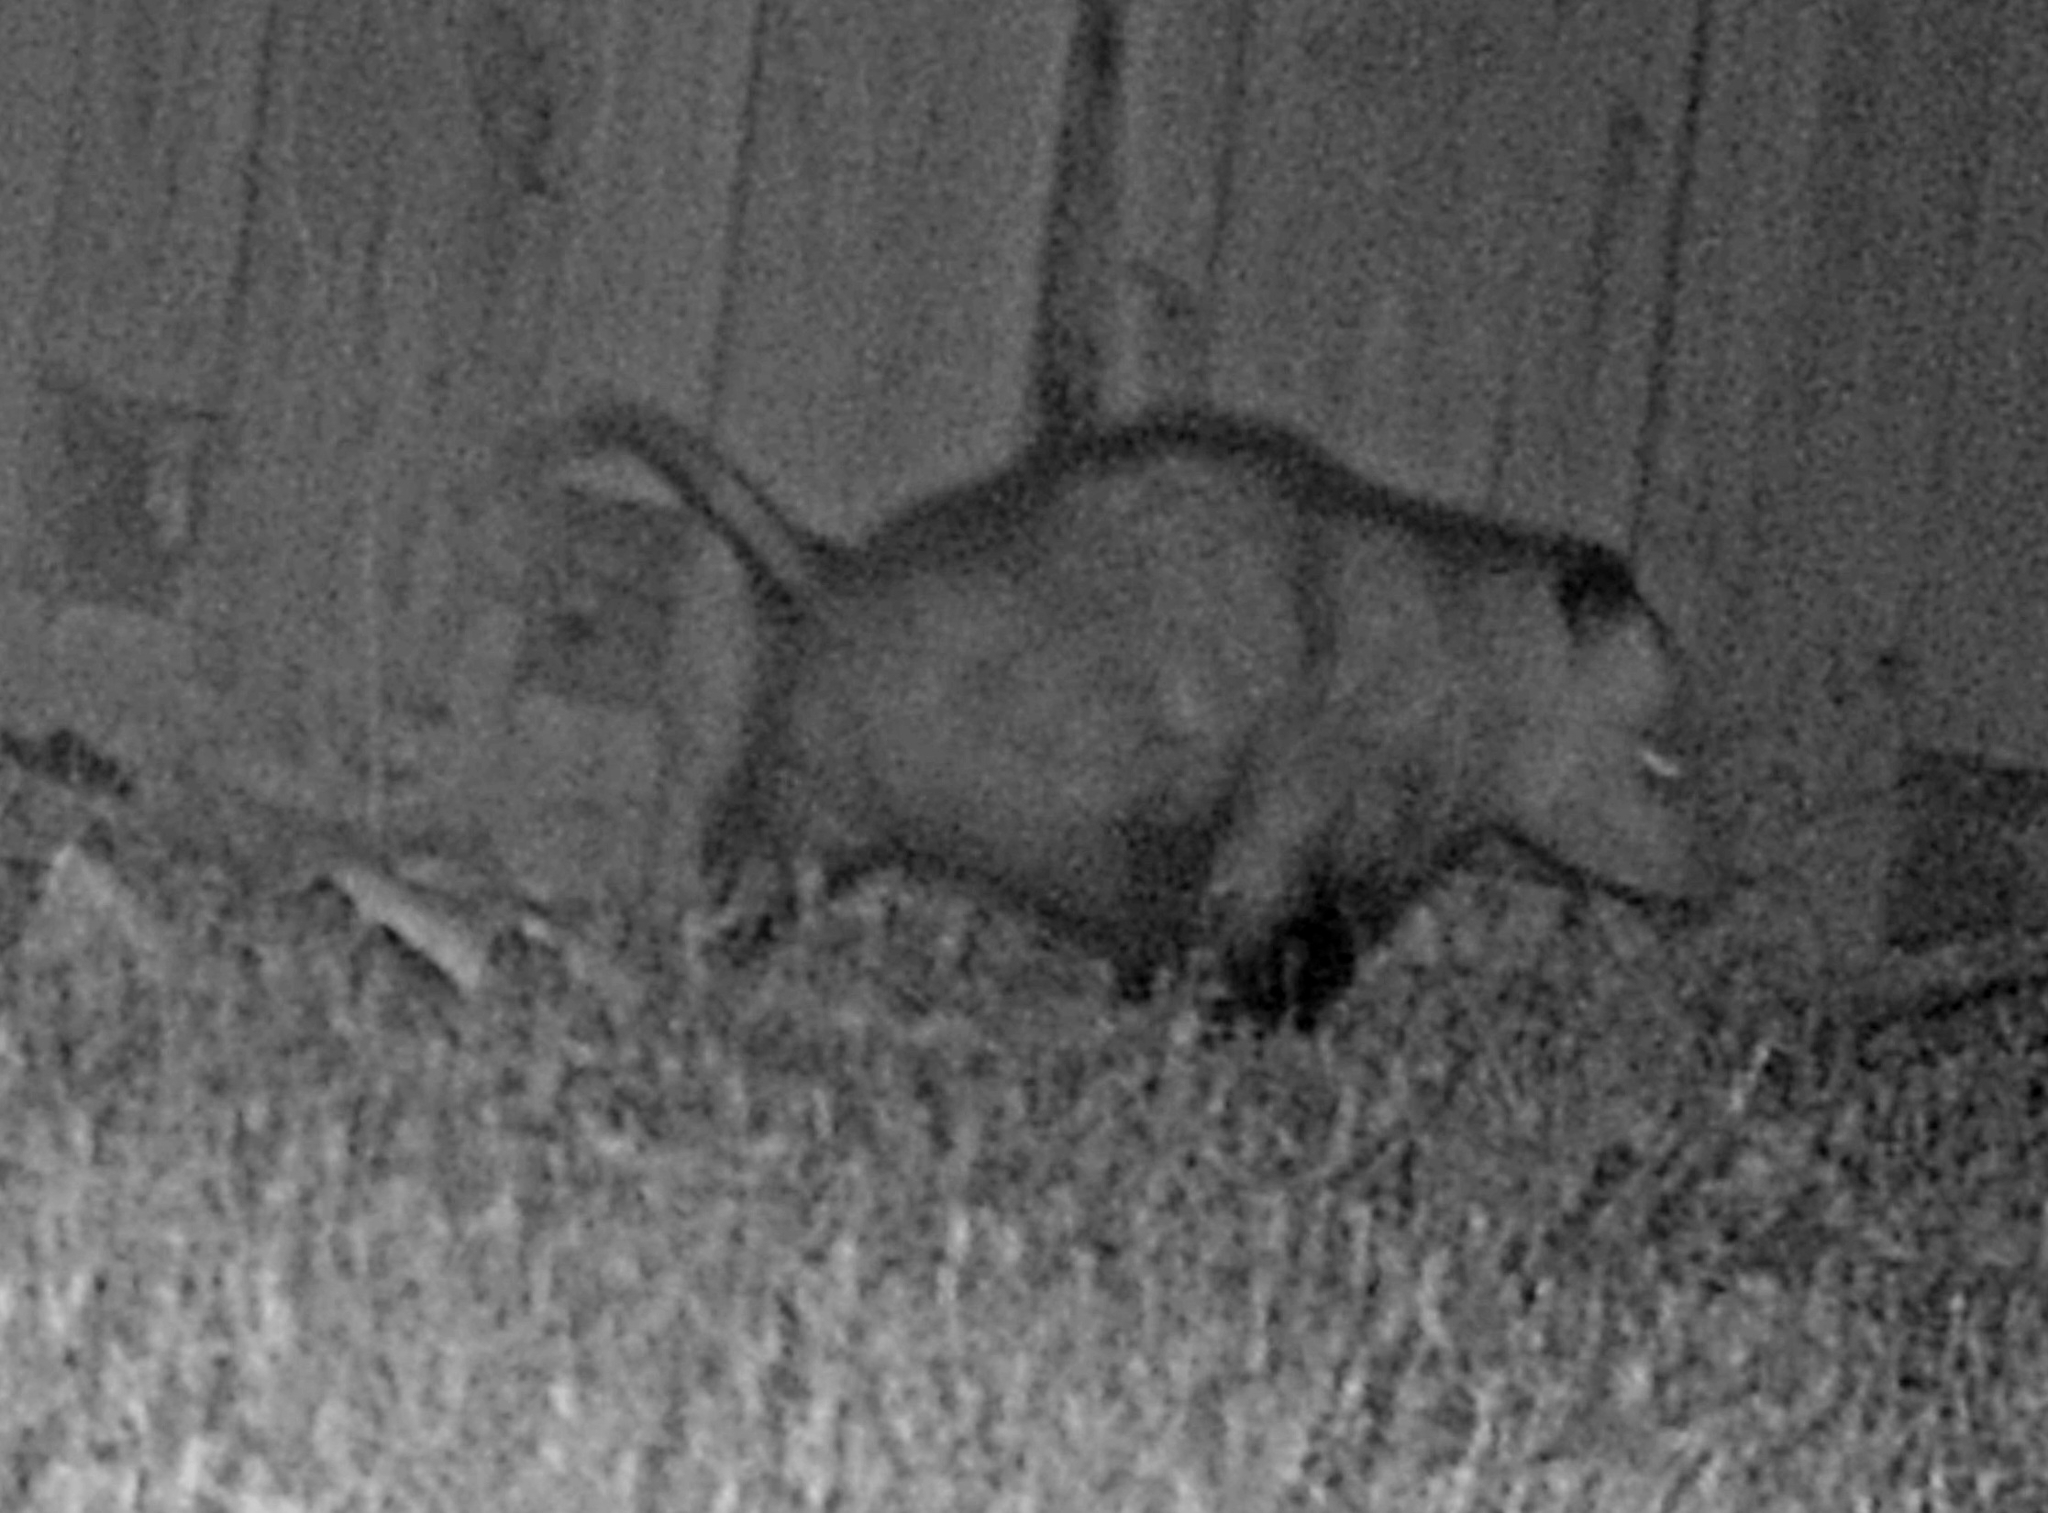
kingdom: Animalia
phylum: Chordata
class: Mammalia
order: Didelphimorphia
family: Didelphidae
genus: Didelphis
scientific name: Didelphis virginiana
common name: Virginia opossum
